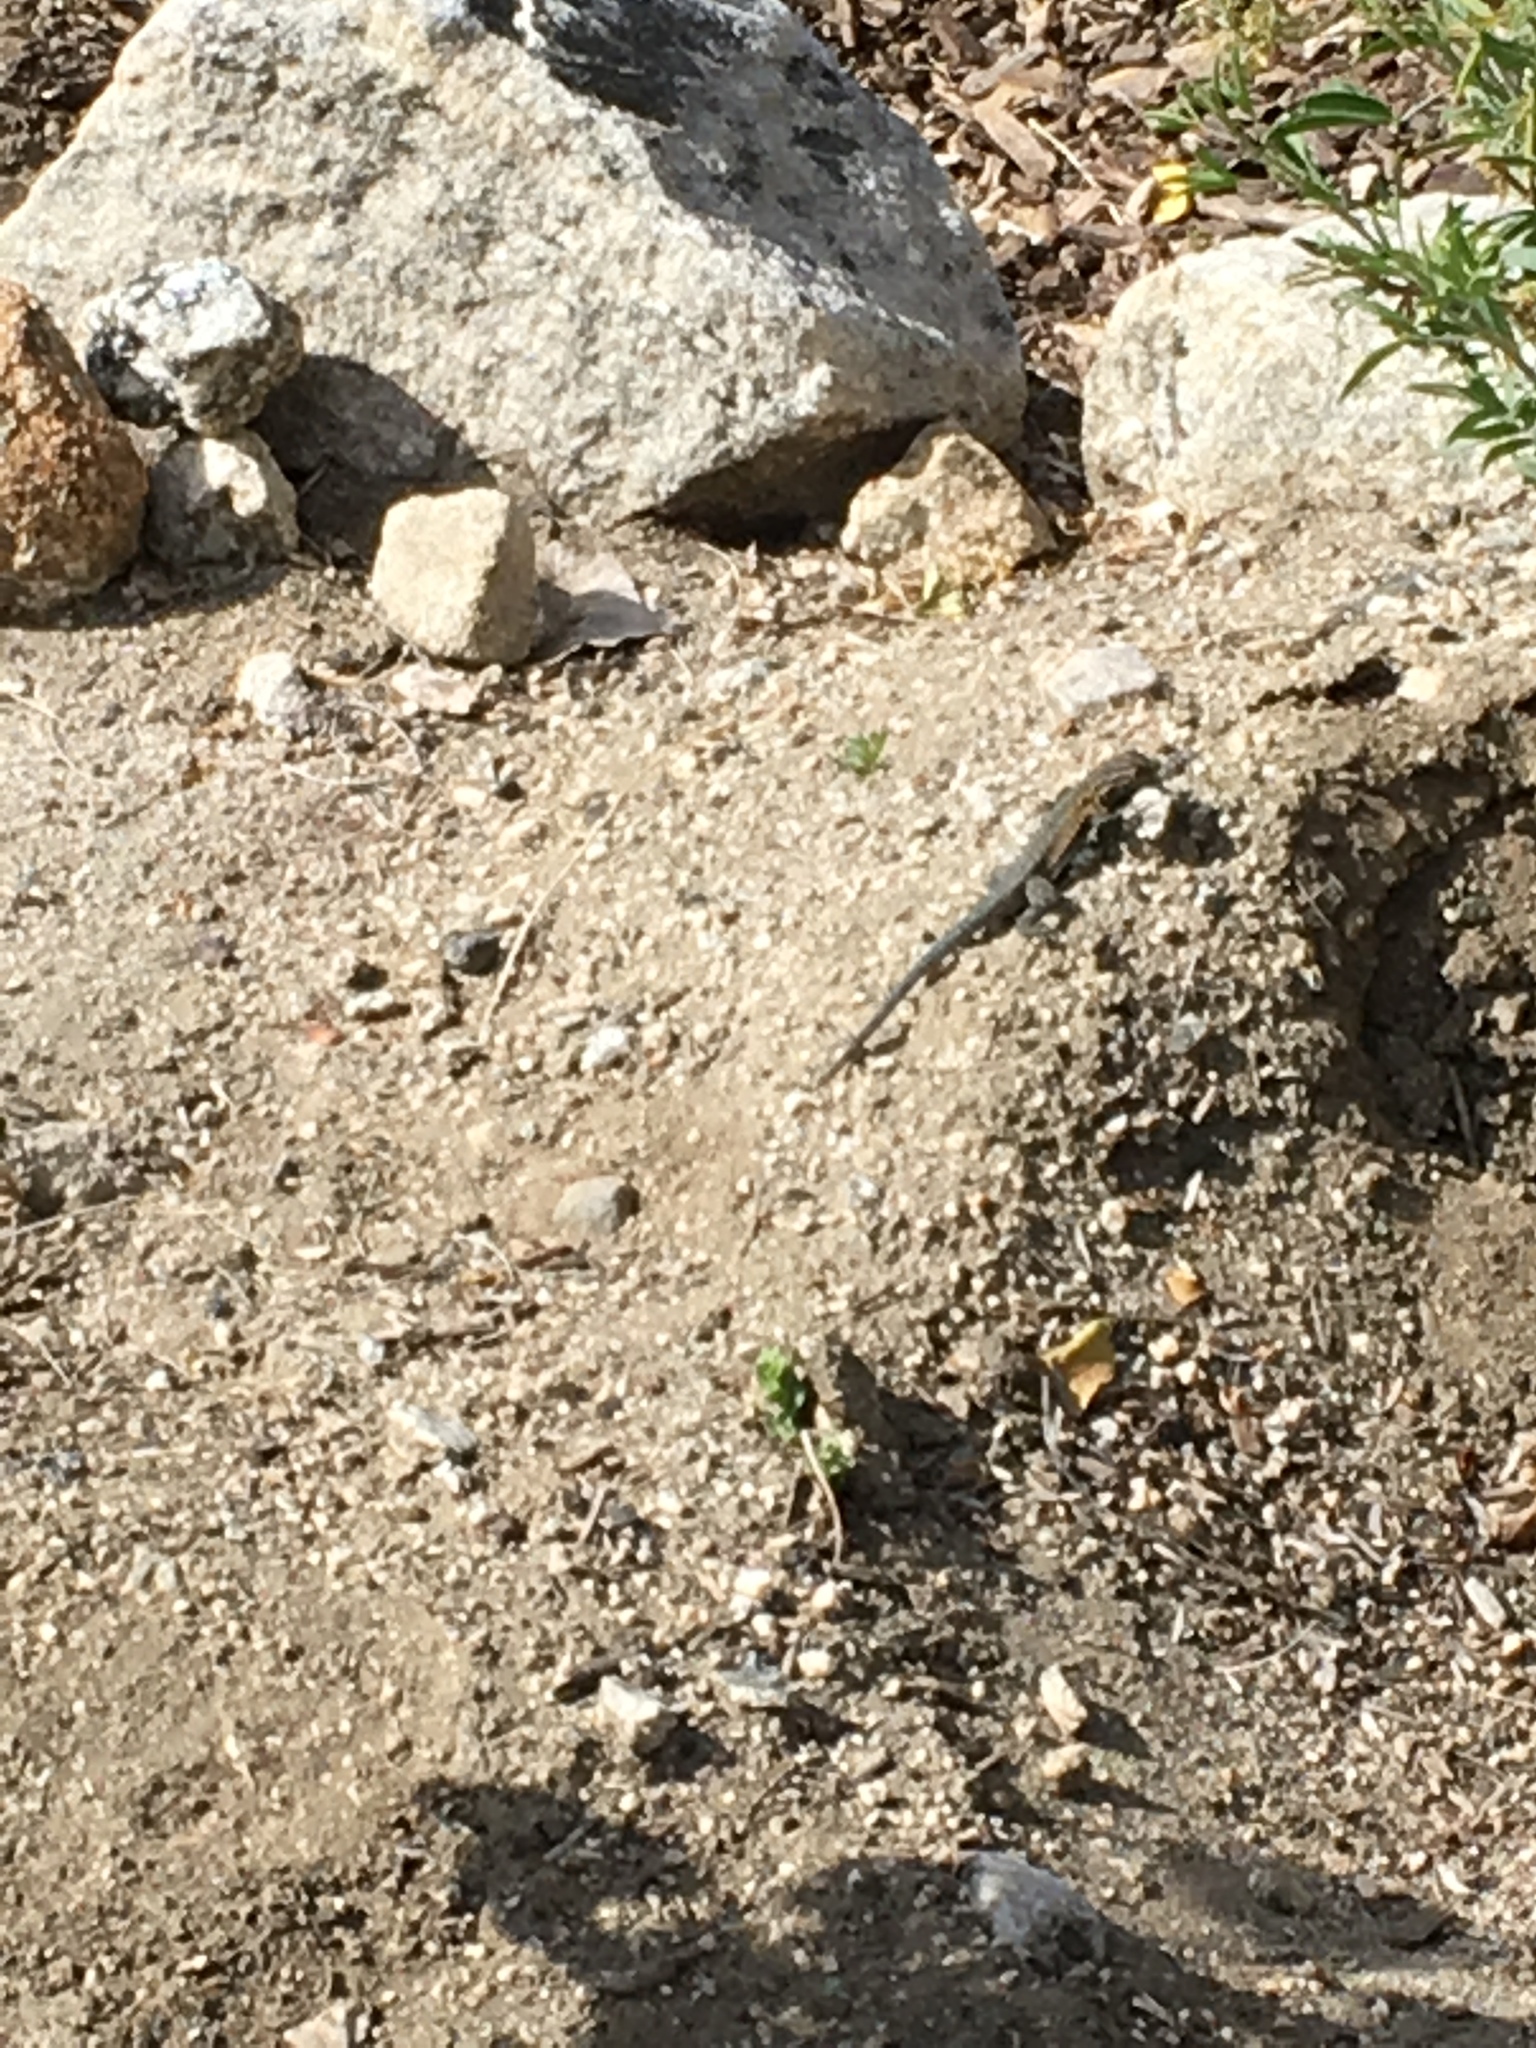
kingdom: Animalia
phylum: Chordata
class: Squamata
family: Phrynosomatidae
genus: Uta
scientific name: Uta stansburiana
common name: Side-blotched lizard
